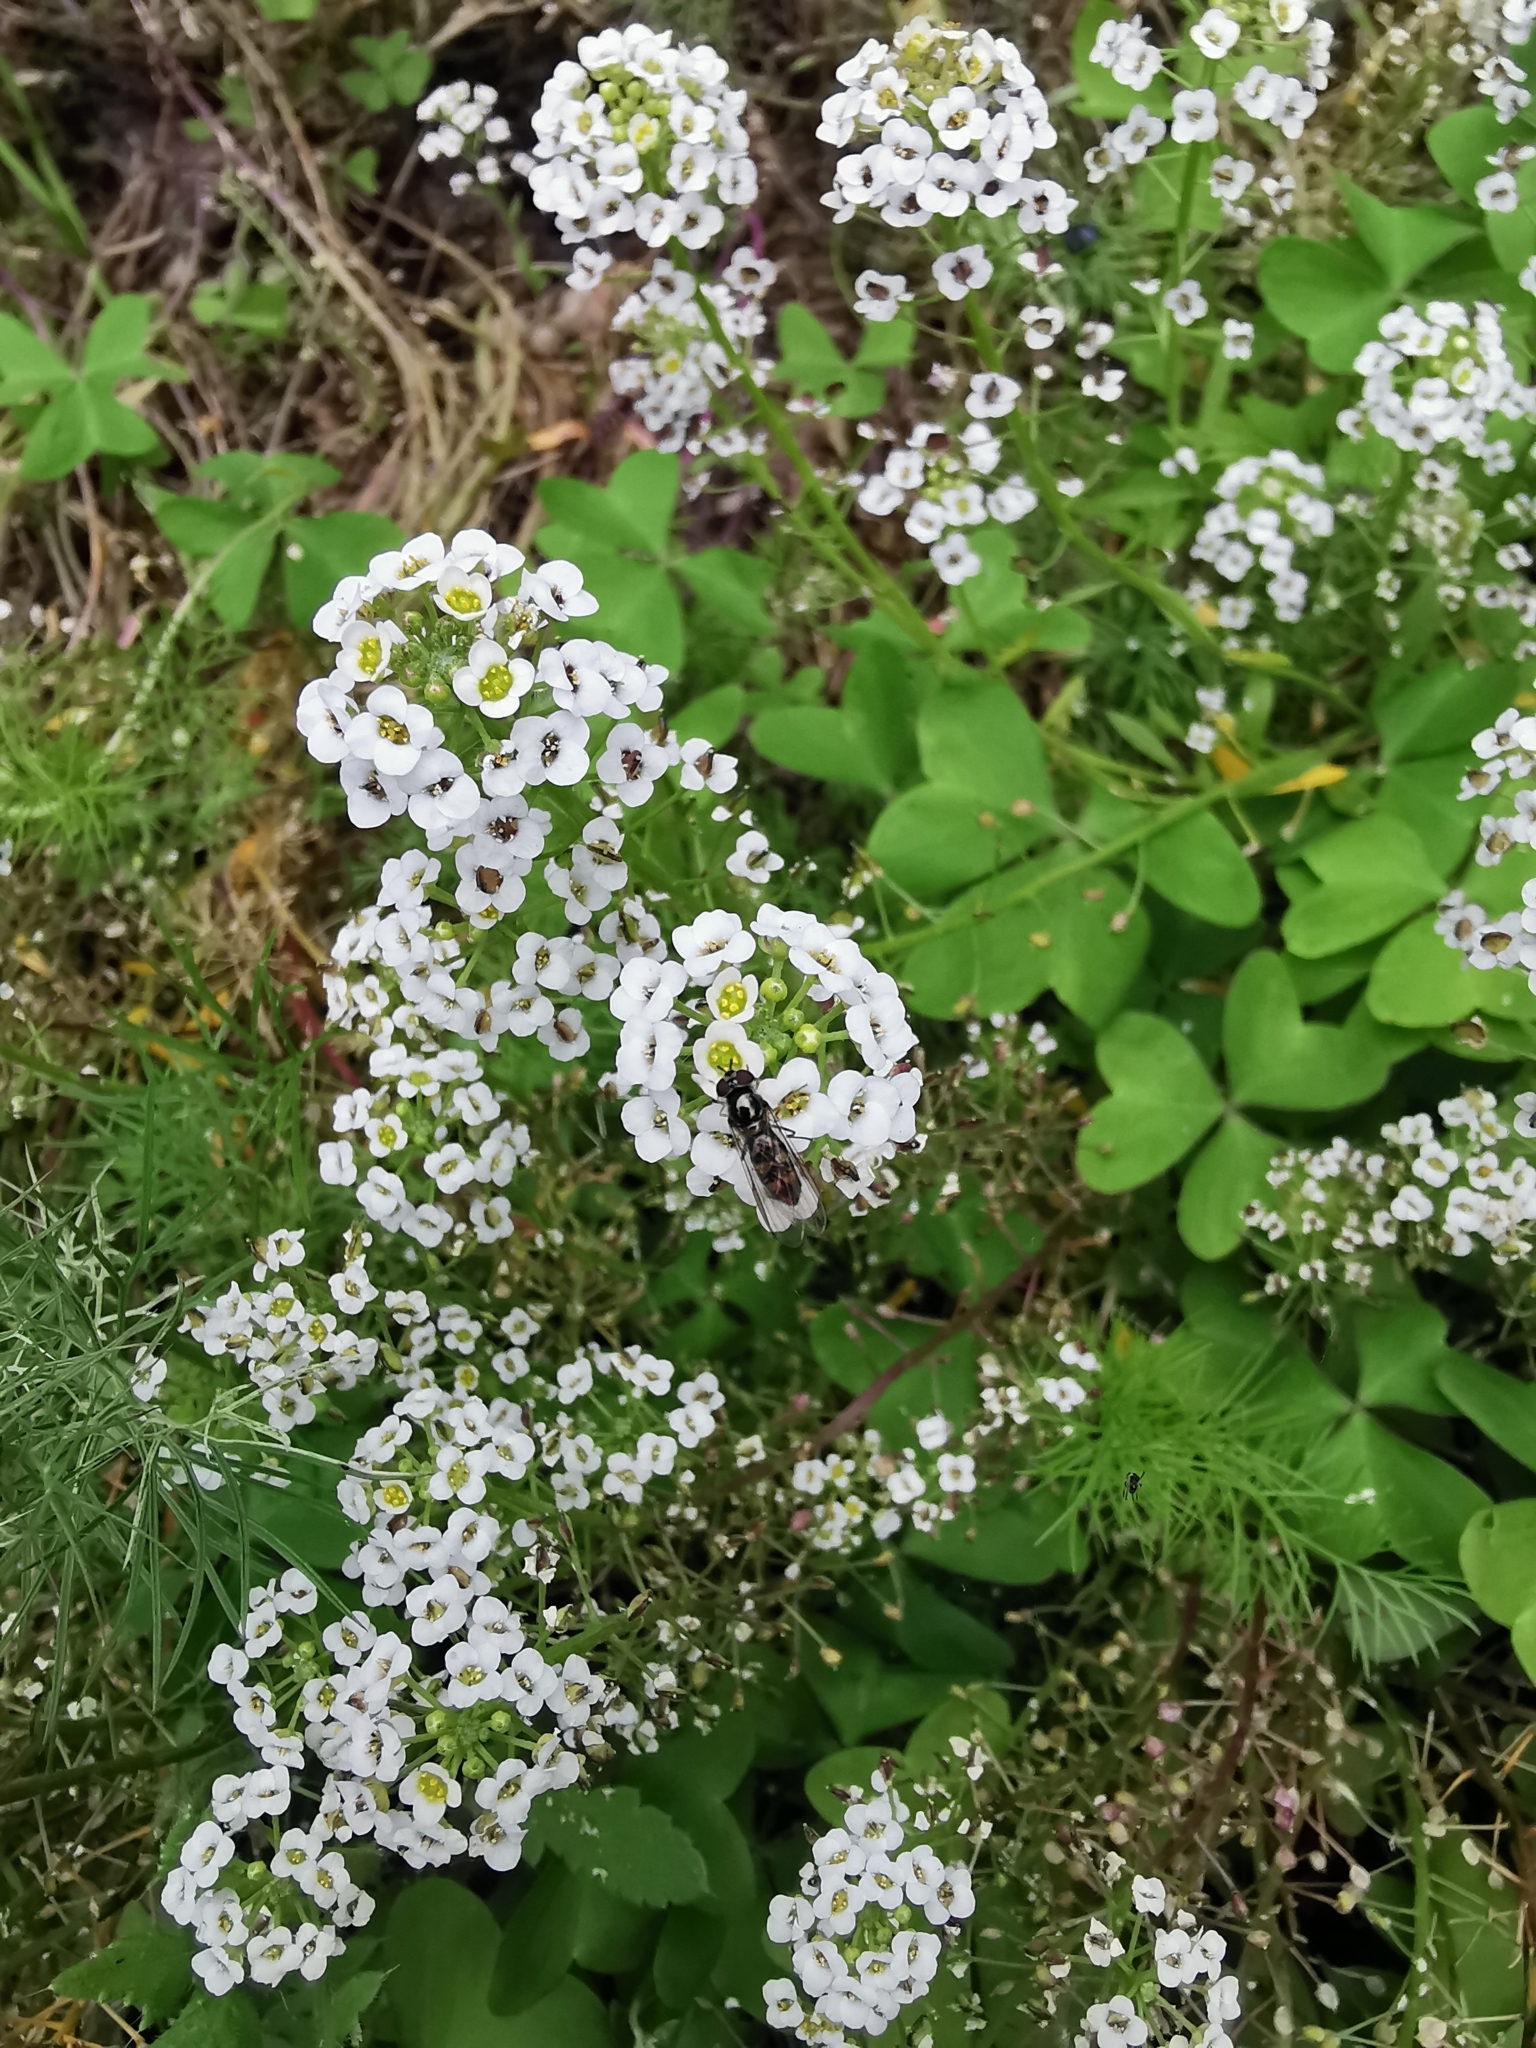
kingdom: Animalia
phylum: Arthropoda
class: Insecta
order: Diptera
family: Syrphidae
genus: Meliscaeva
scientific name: Meliscaeva auricollis
